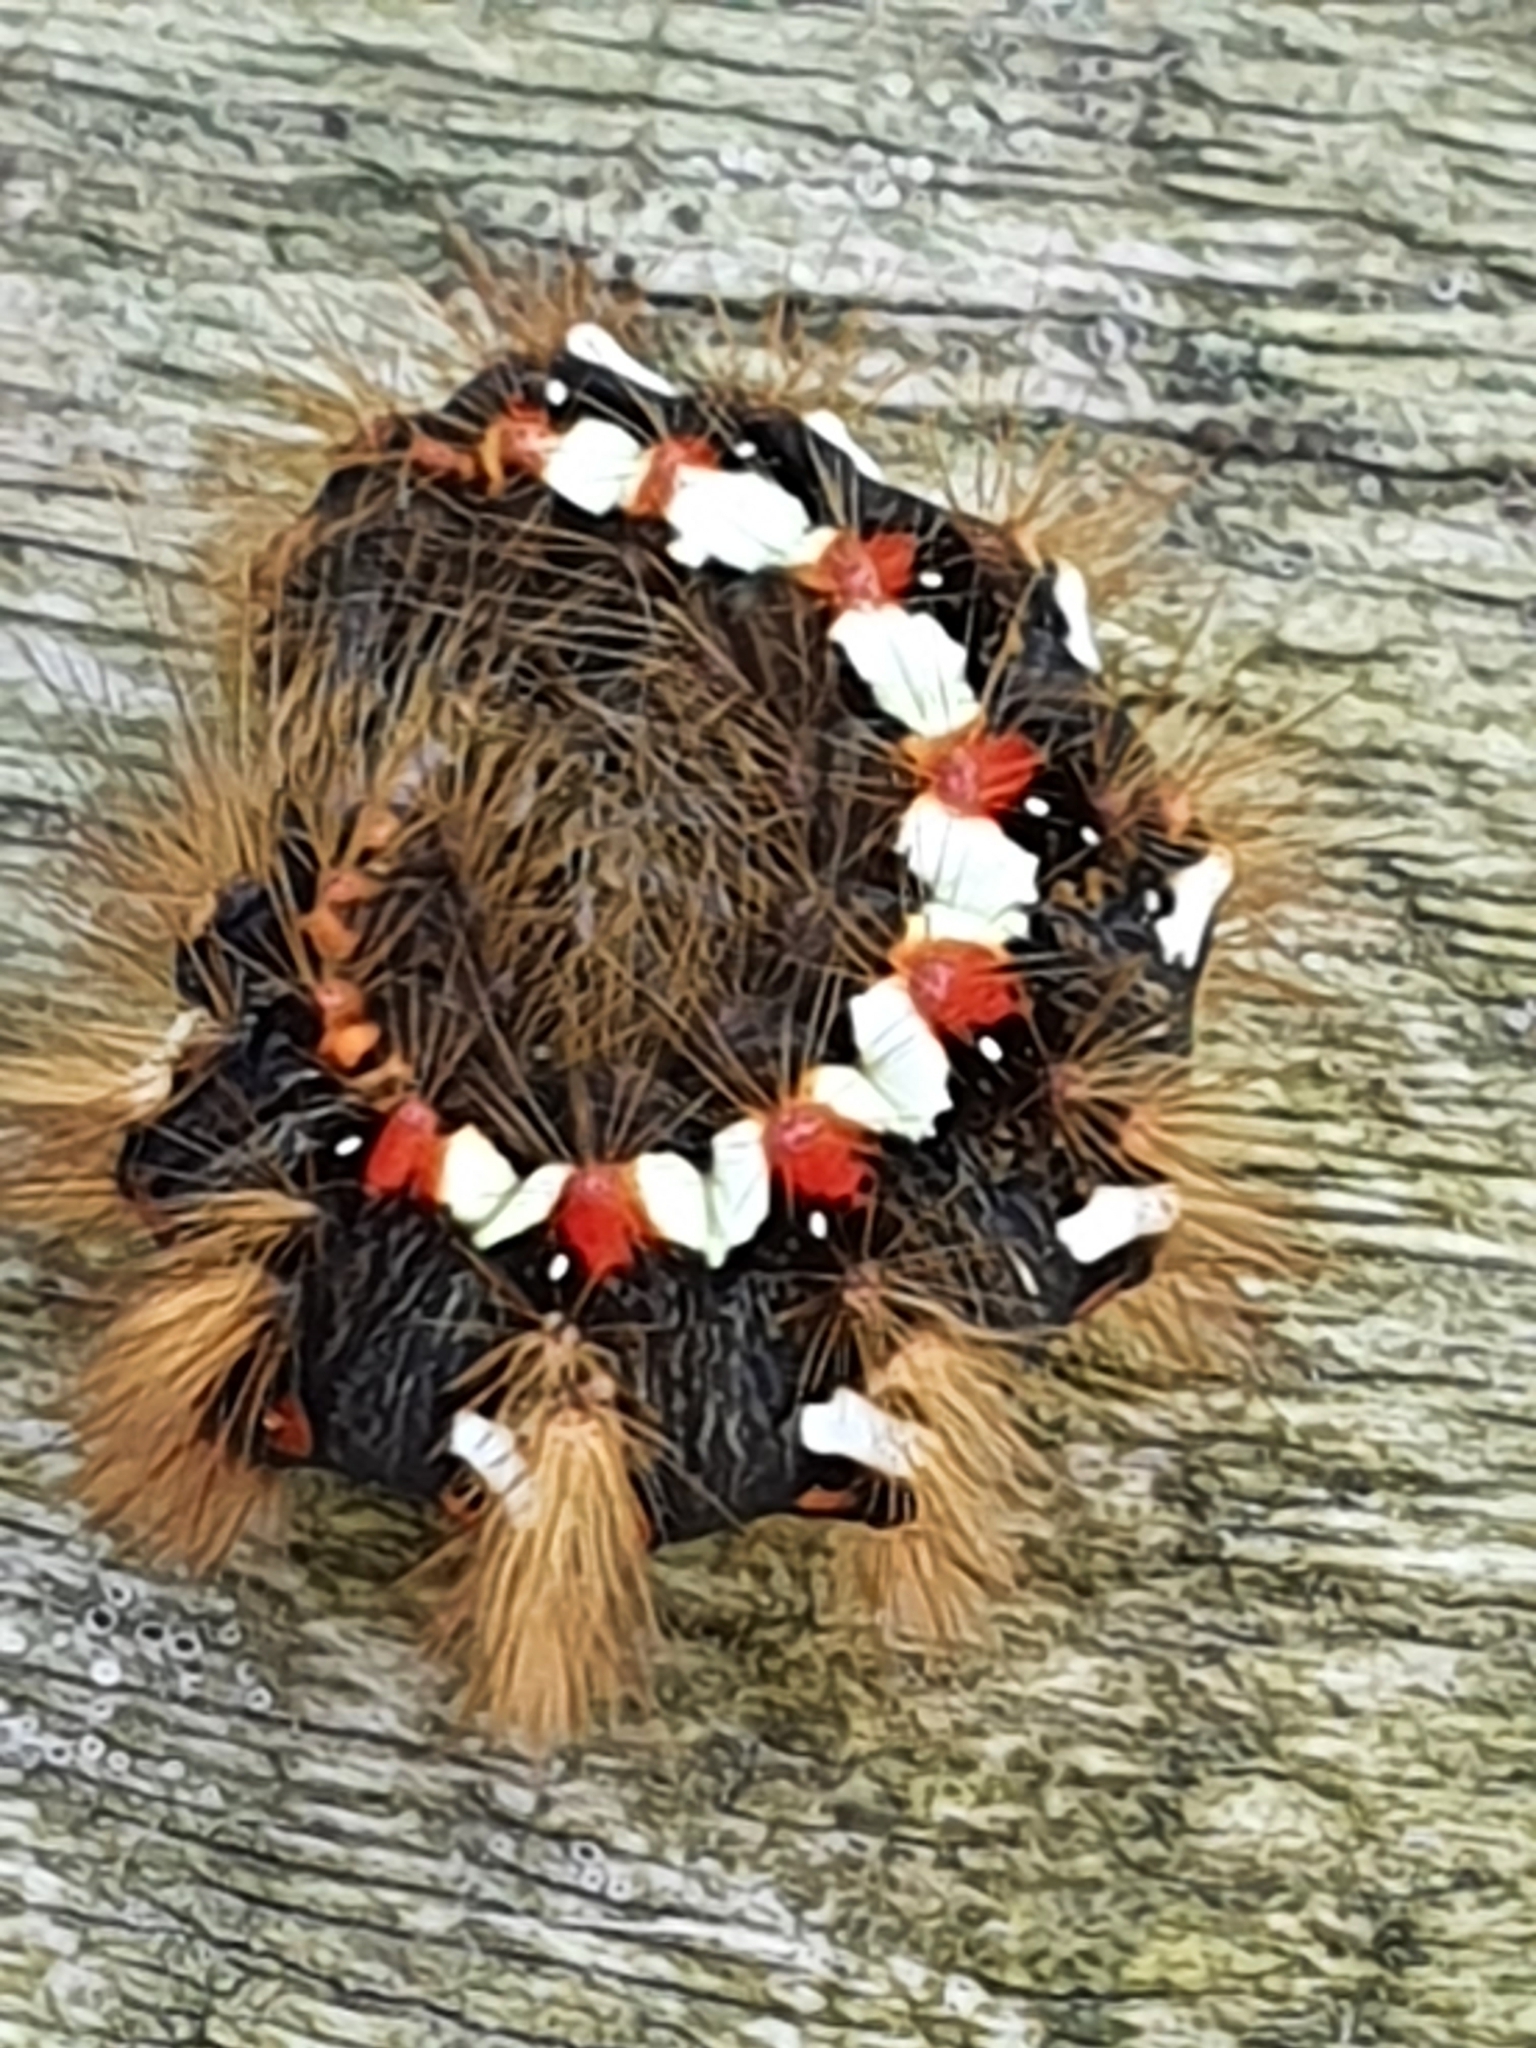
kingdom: Animalia
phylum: Arthropoda
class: Insecta
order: Lepidoptera
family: Noctuidae
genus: Acronicta
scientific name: Acronicta rumicis
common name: Knot grass
